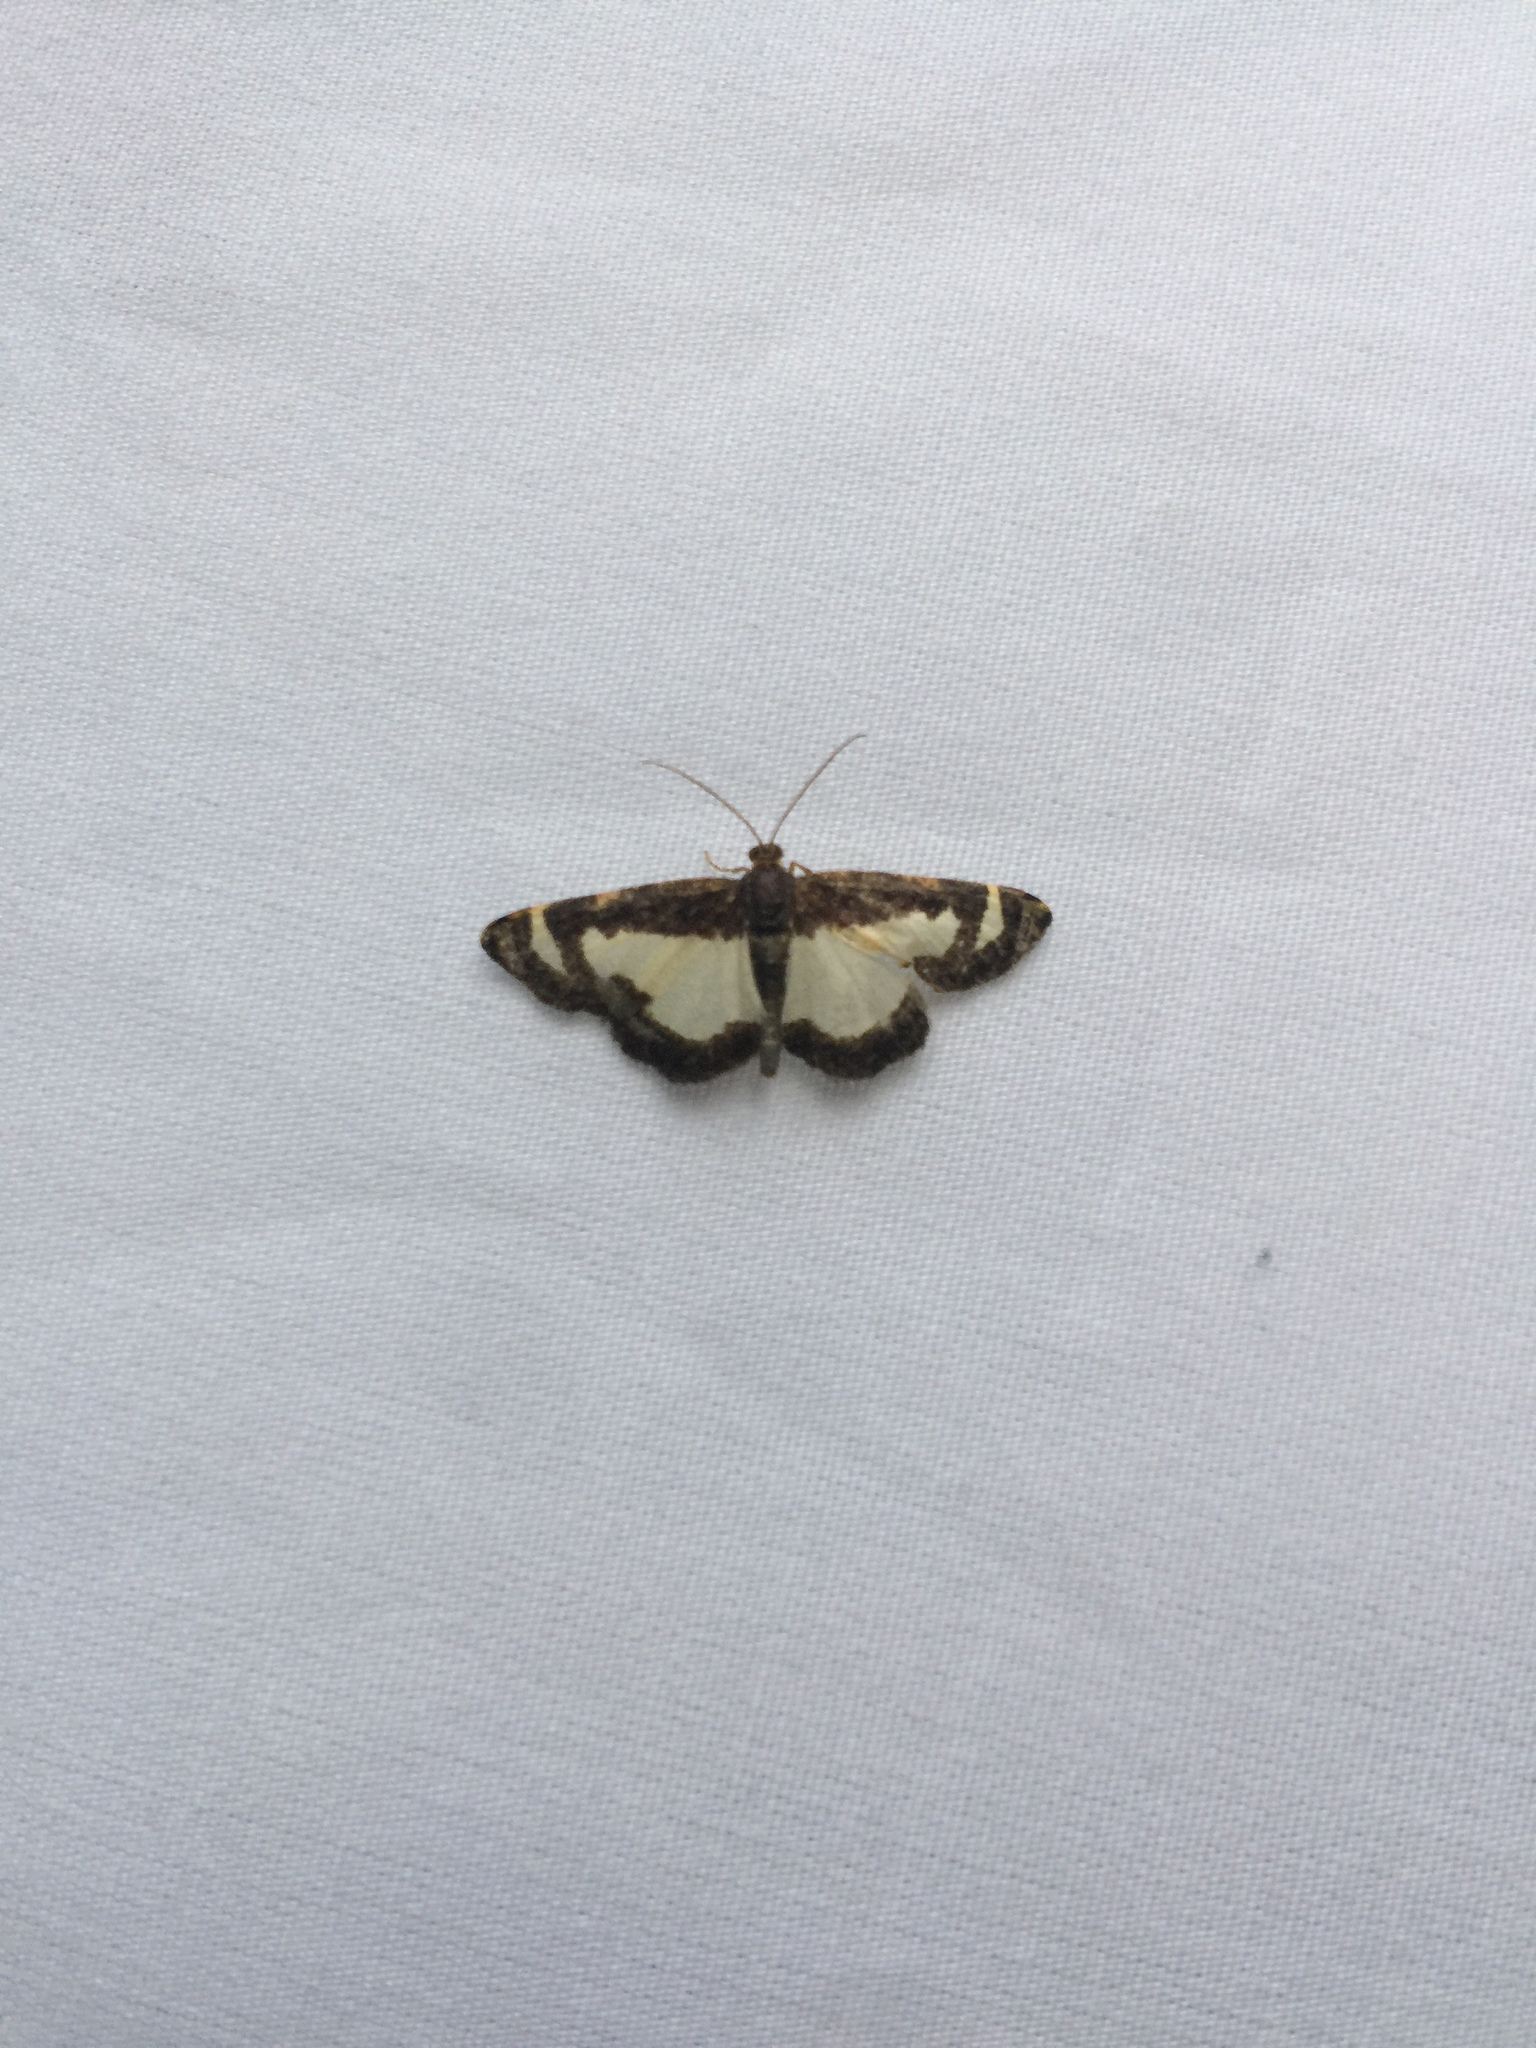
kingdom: Animalia
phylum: Arthropoda
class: Insecta
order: Lepidoptera
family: Geometridae
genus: Heliomata
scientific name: Heliomata cycladata
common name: Common spring moth
